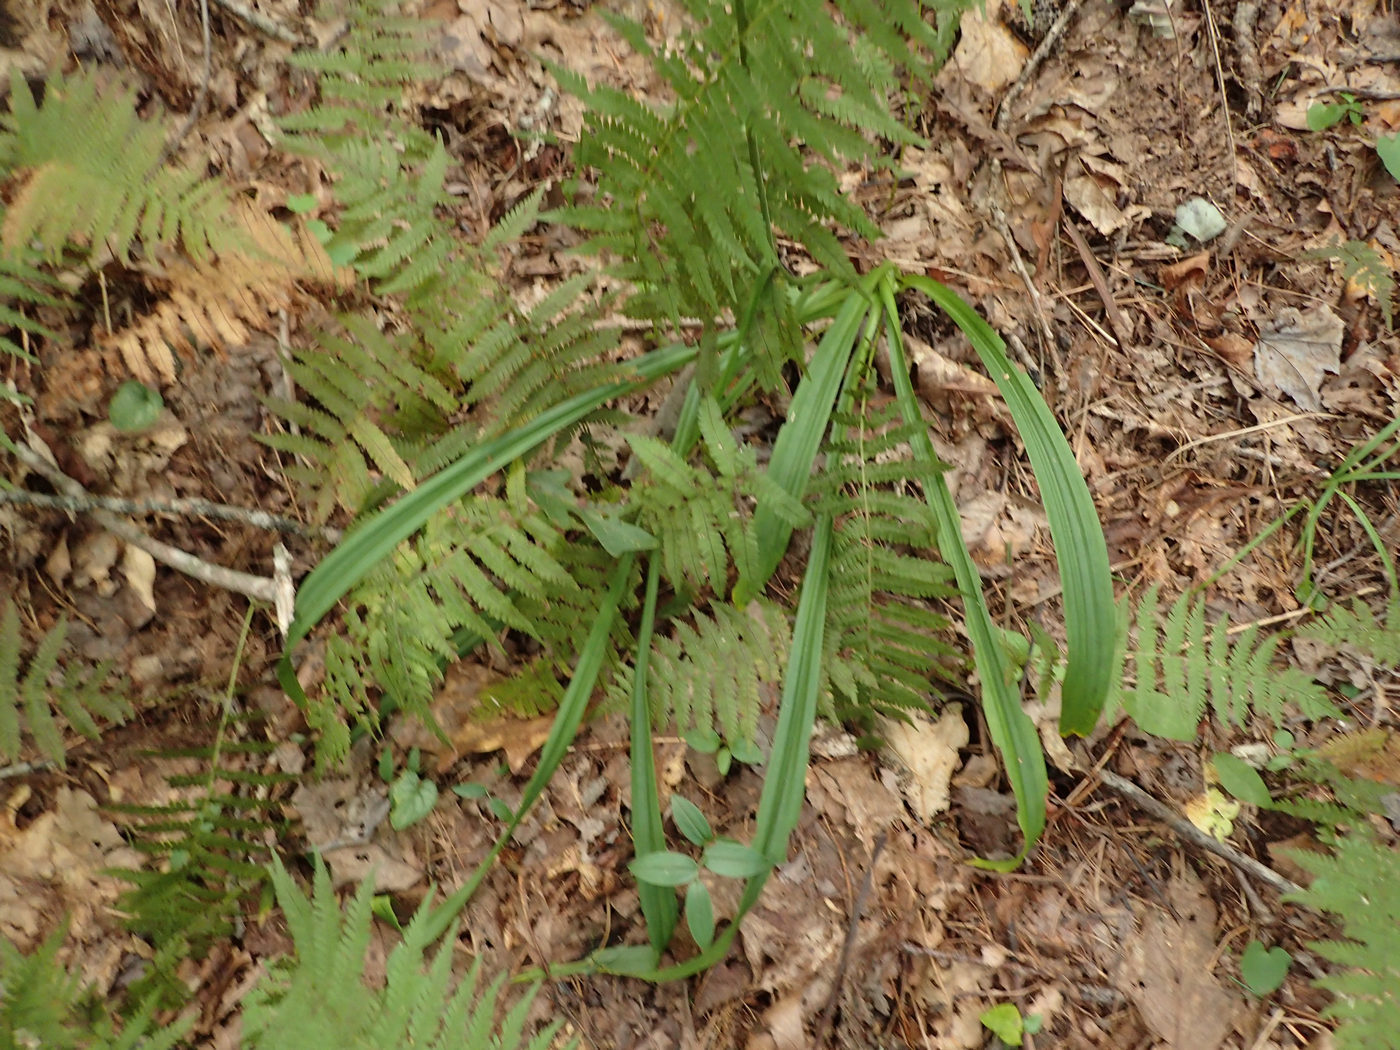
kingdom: Plantae
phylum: Tracheophyta
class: Liliopsida
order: Liliales
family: Melanthiaceae
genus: Veratrum
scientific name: Veratrum hybridum
